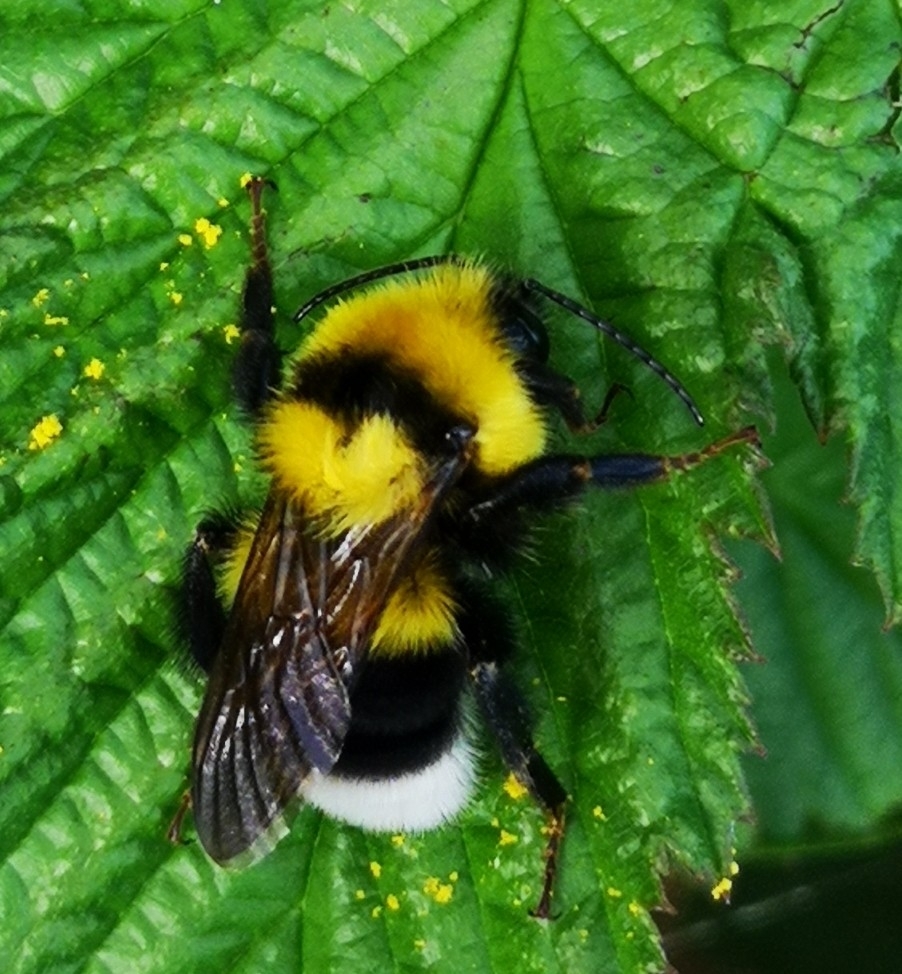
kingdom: Animalia
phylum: Arthropoda
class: Insecta
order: Hymenoptera
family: Apidae
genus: Bombus
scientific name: Bombus argillaceus
